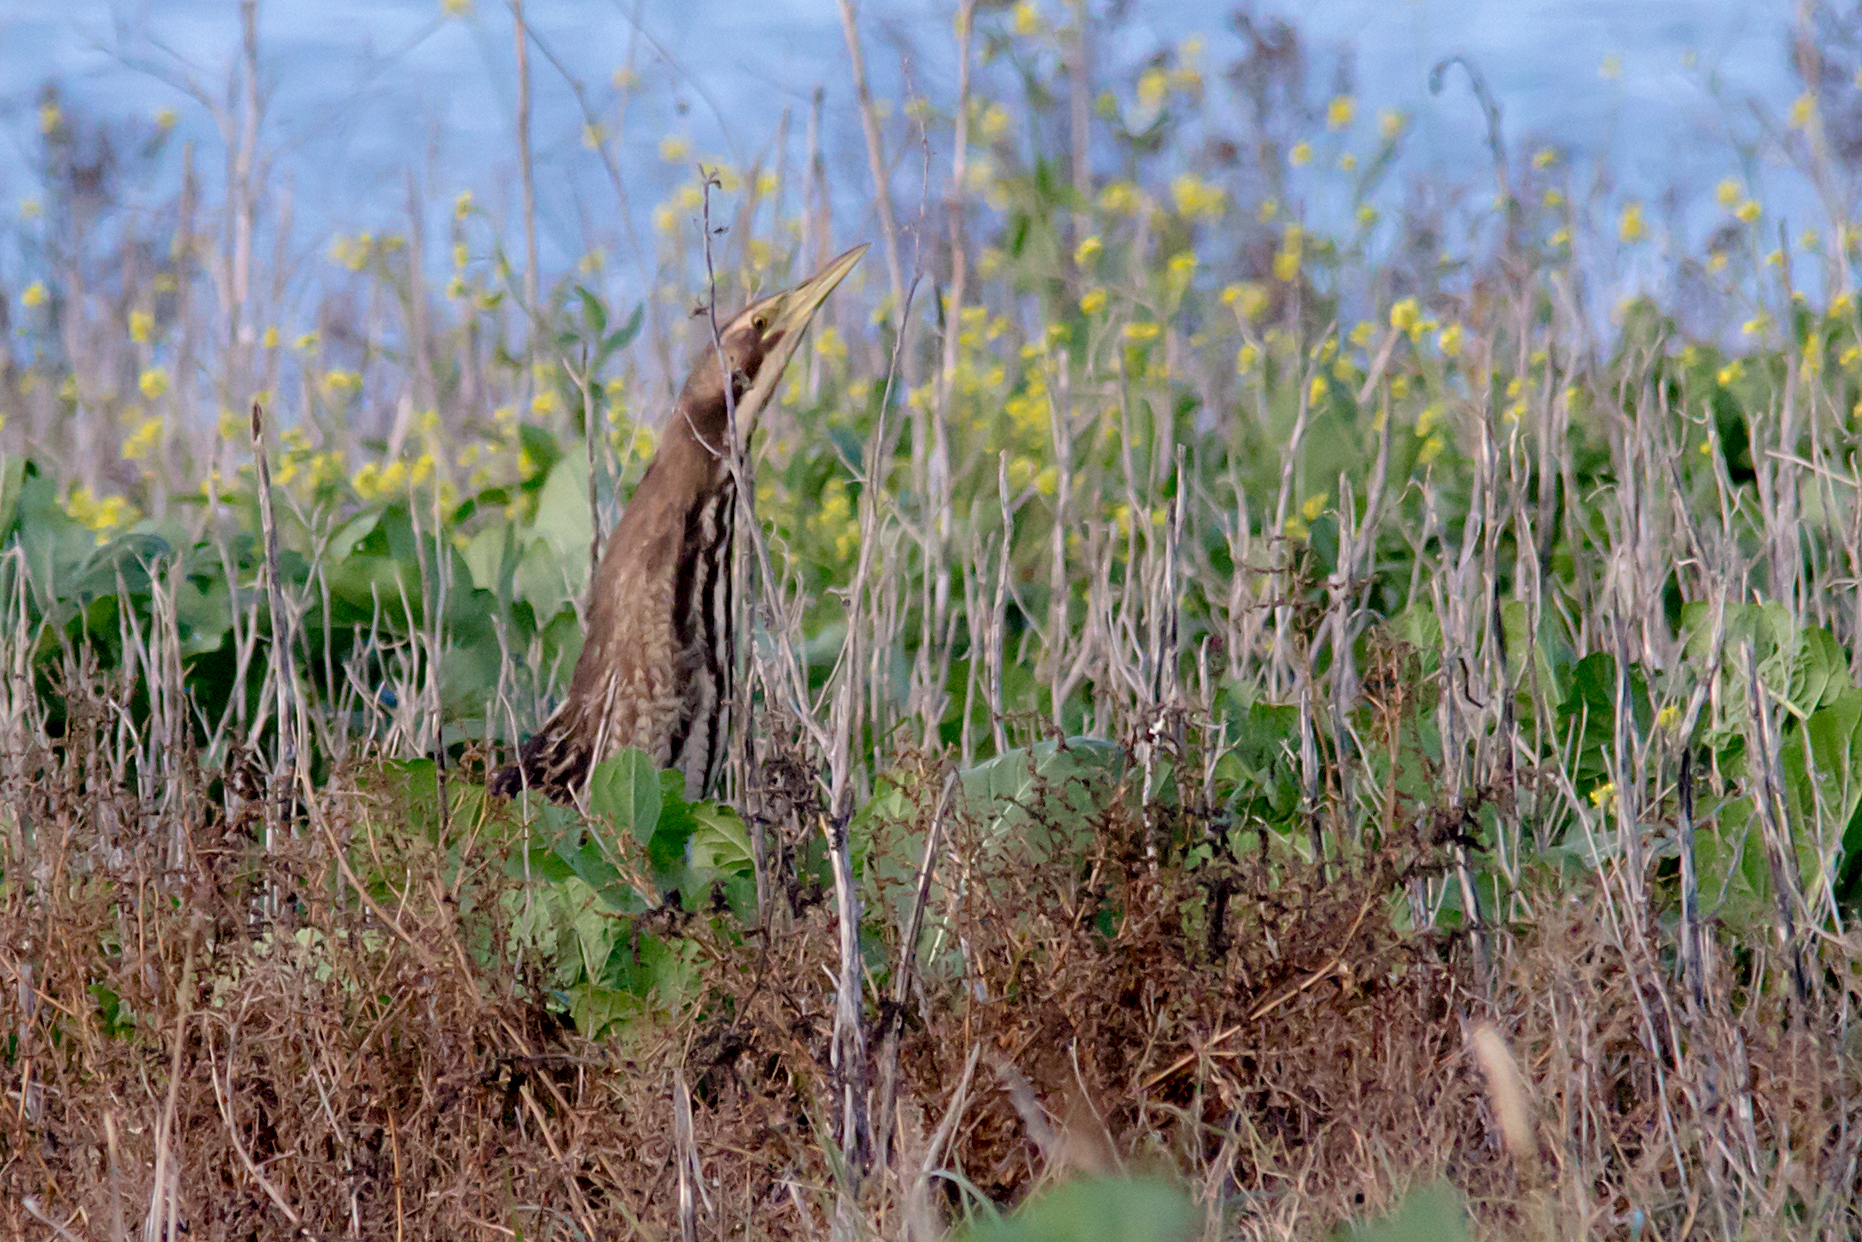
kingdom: Animalia
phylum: Chordata
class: Aves
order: Pelecaniformes
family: Ardeidae
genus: Botaurus
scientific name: Botaurus poiciloptilus
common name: Australasian bittern
